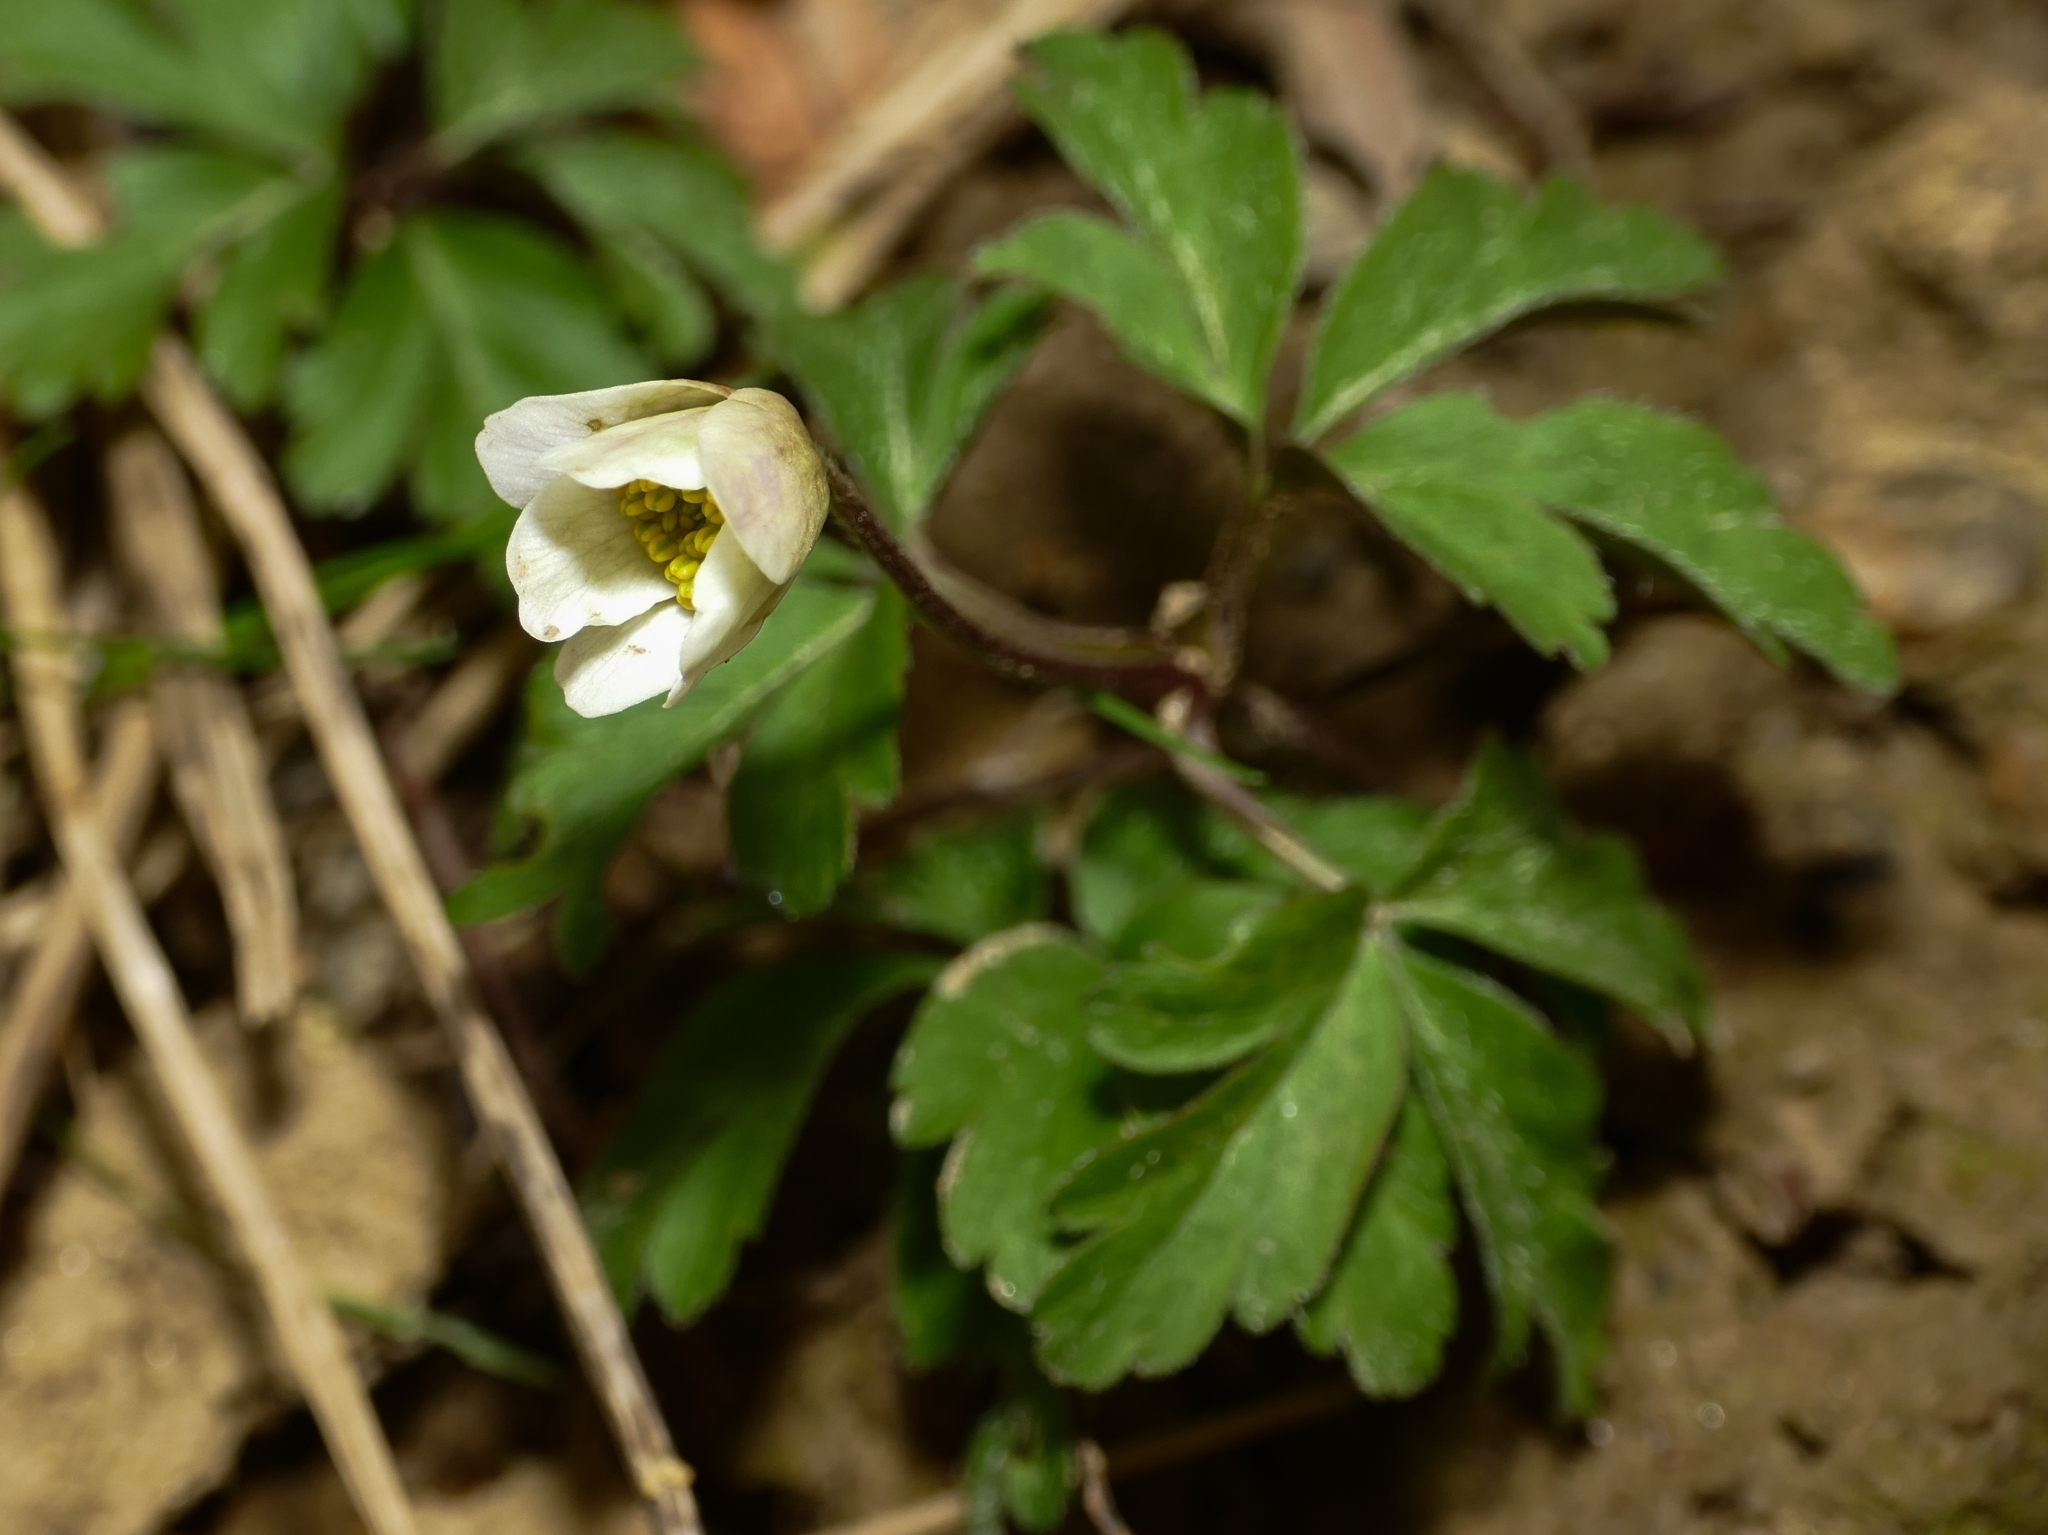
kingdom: Plantae
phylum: Tracheophyta
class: Magnoliopsida
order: Ranunculales
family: Ranunculaceae
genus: Anemone
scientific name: Anemone nemorosa
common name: Wood anemone
